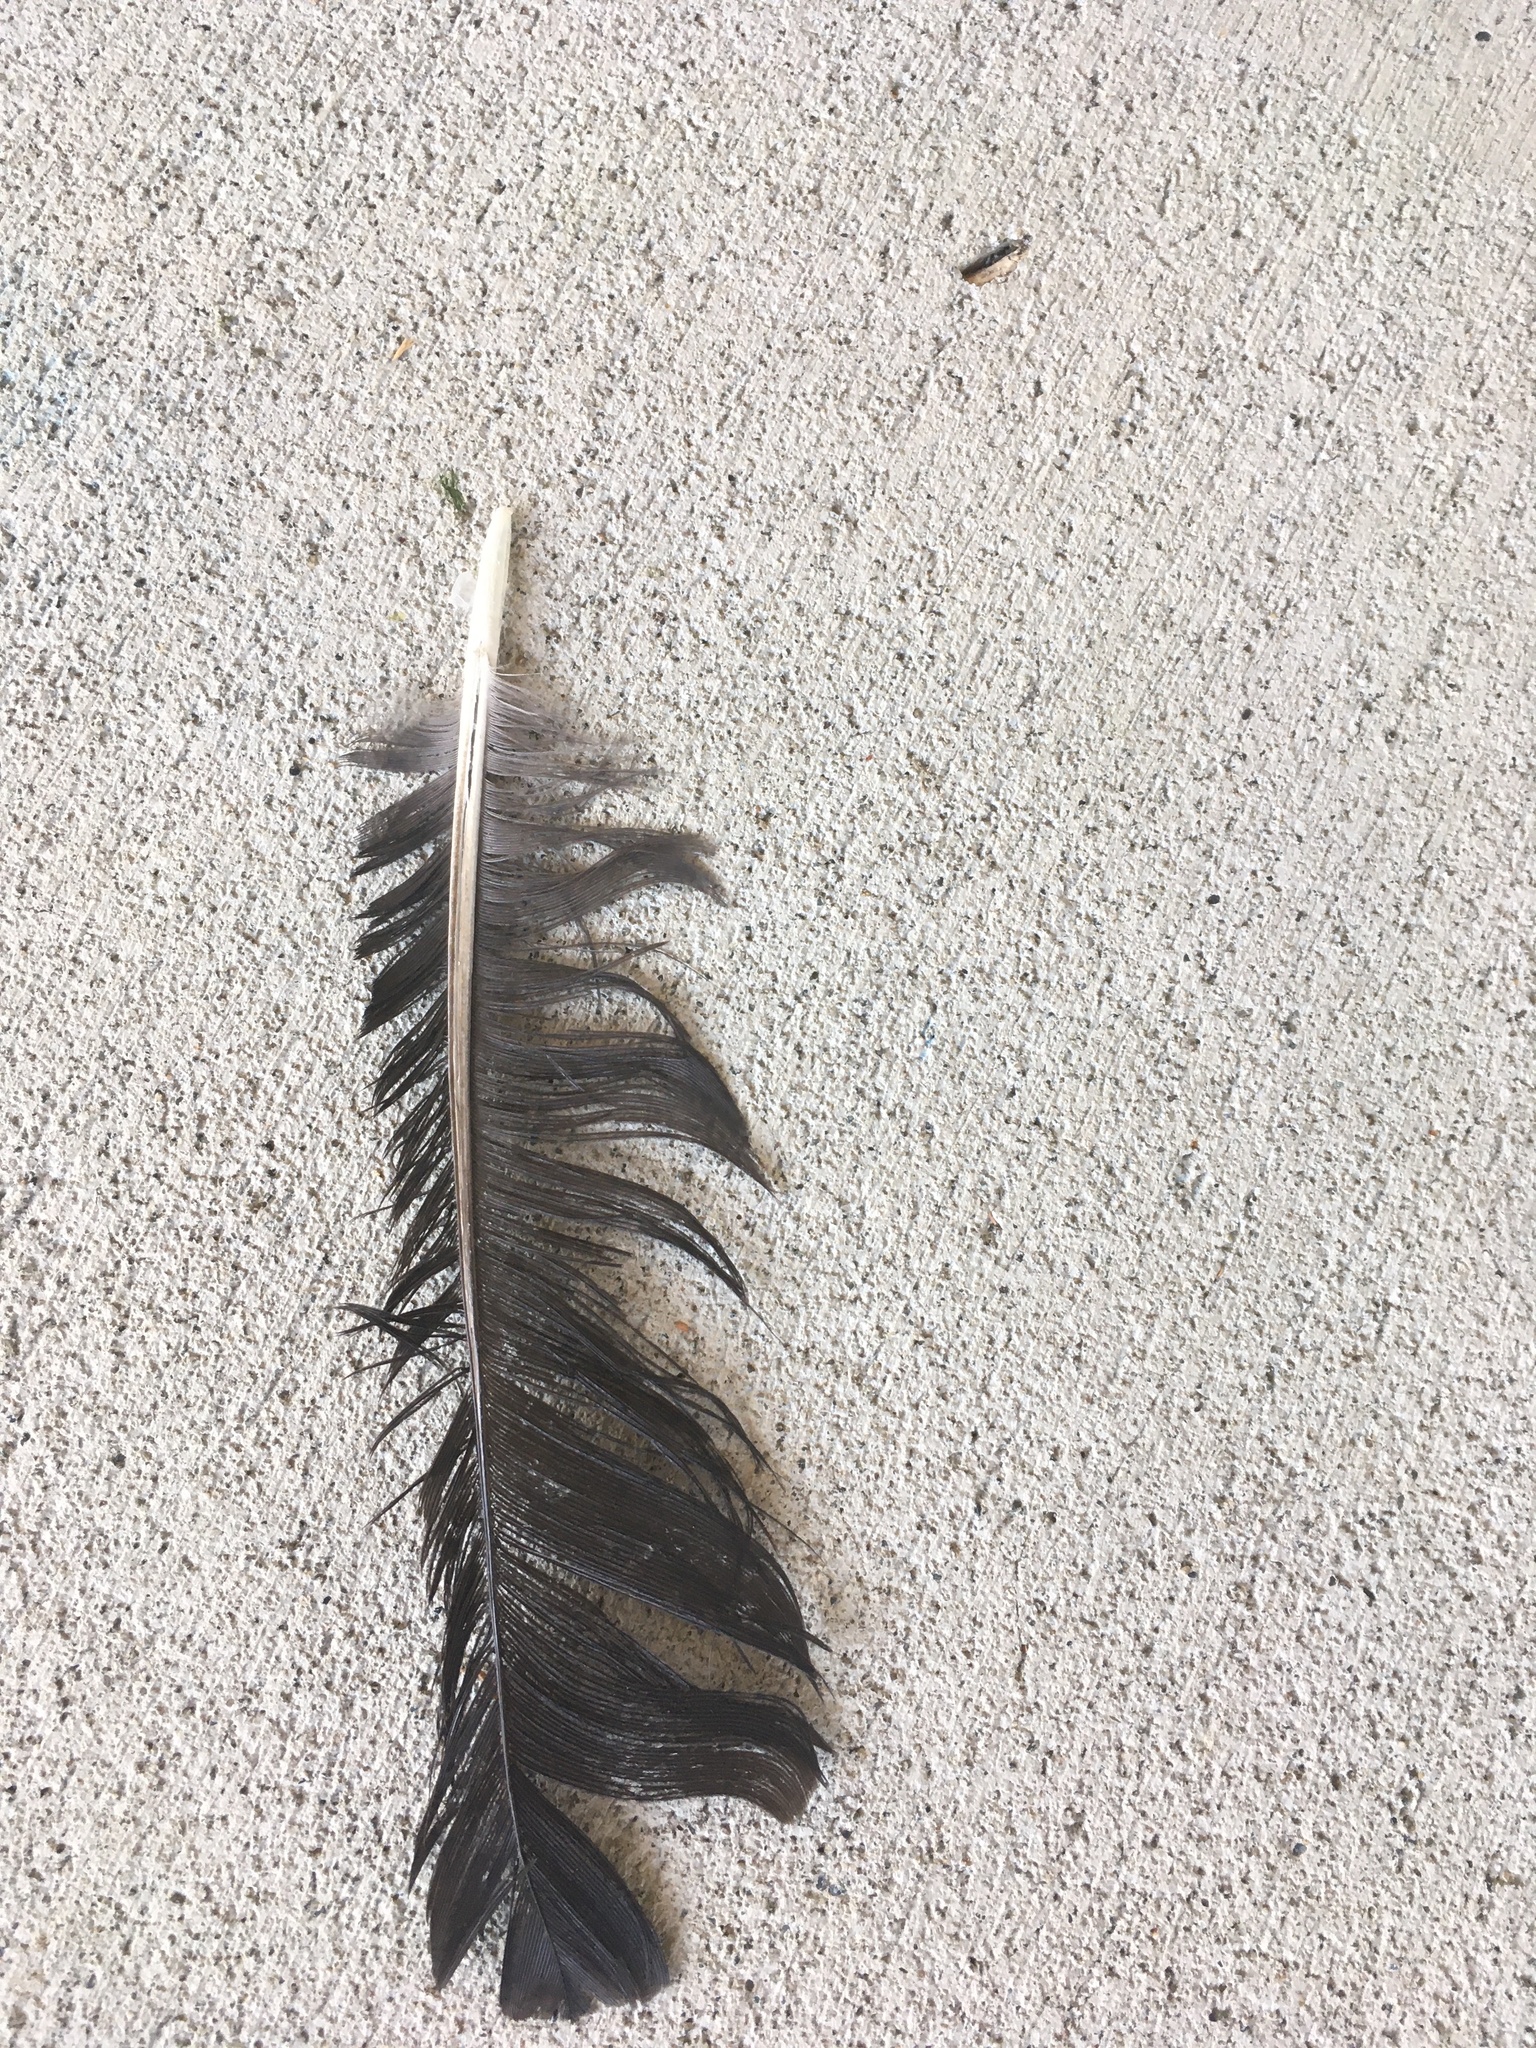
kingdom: Animalia
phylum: Chordata
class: Aves
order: Passeriformes
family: Corvidae
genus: Corvus
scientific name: Corvus brachyrhynchos
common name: American crow
